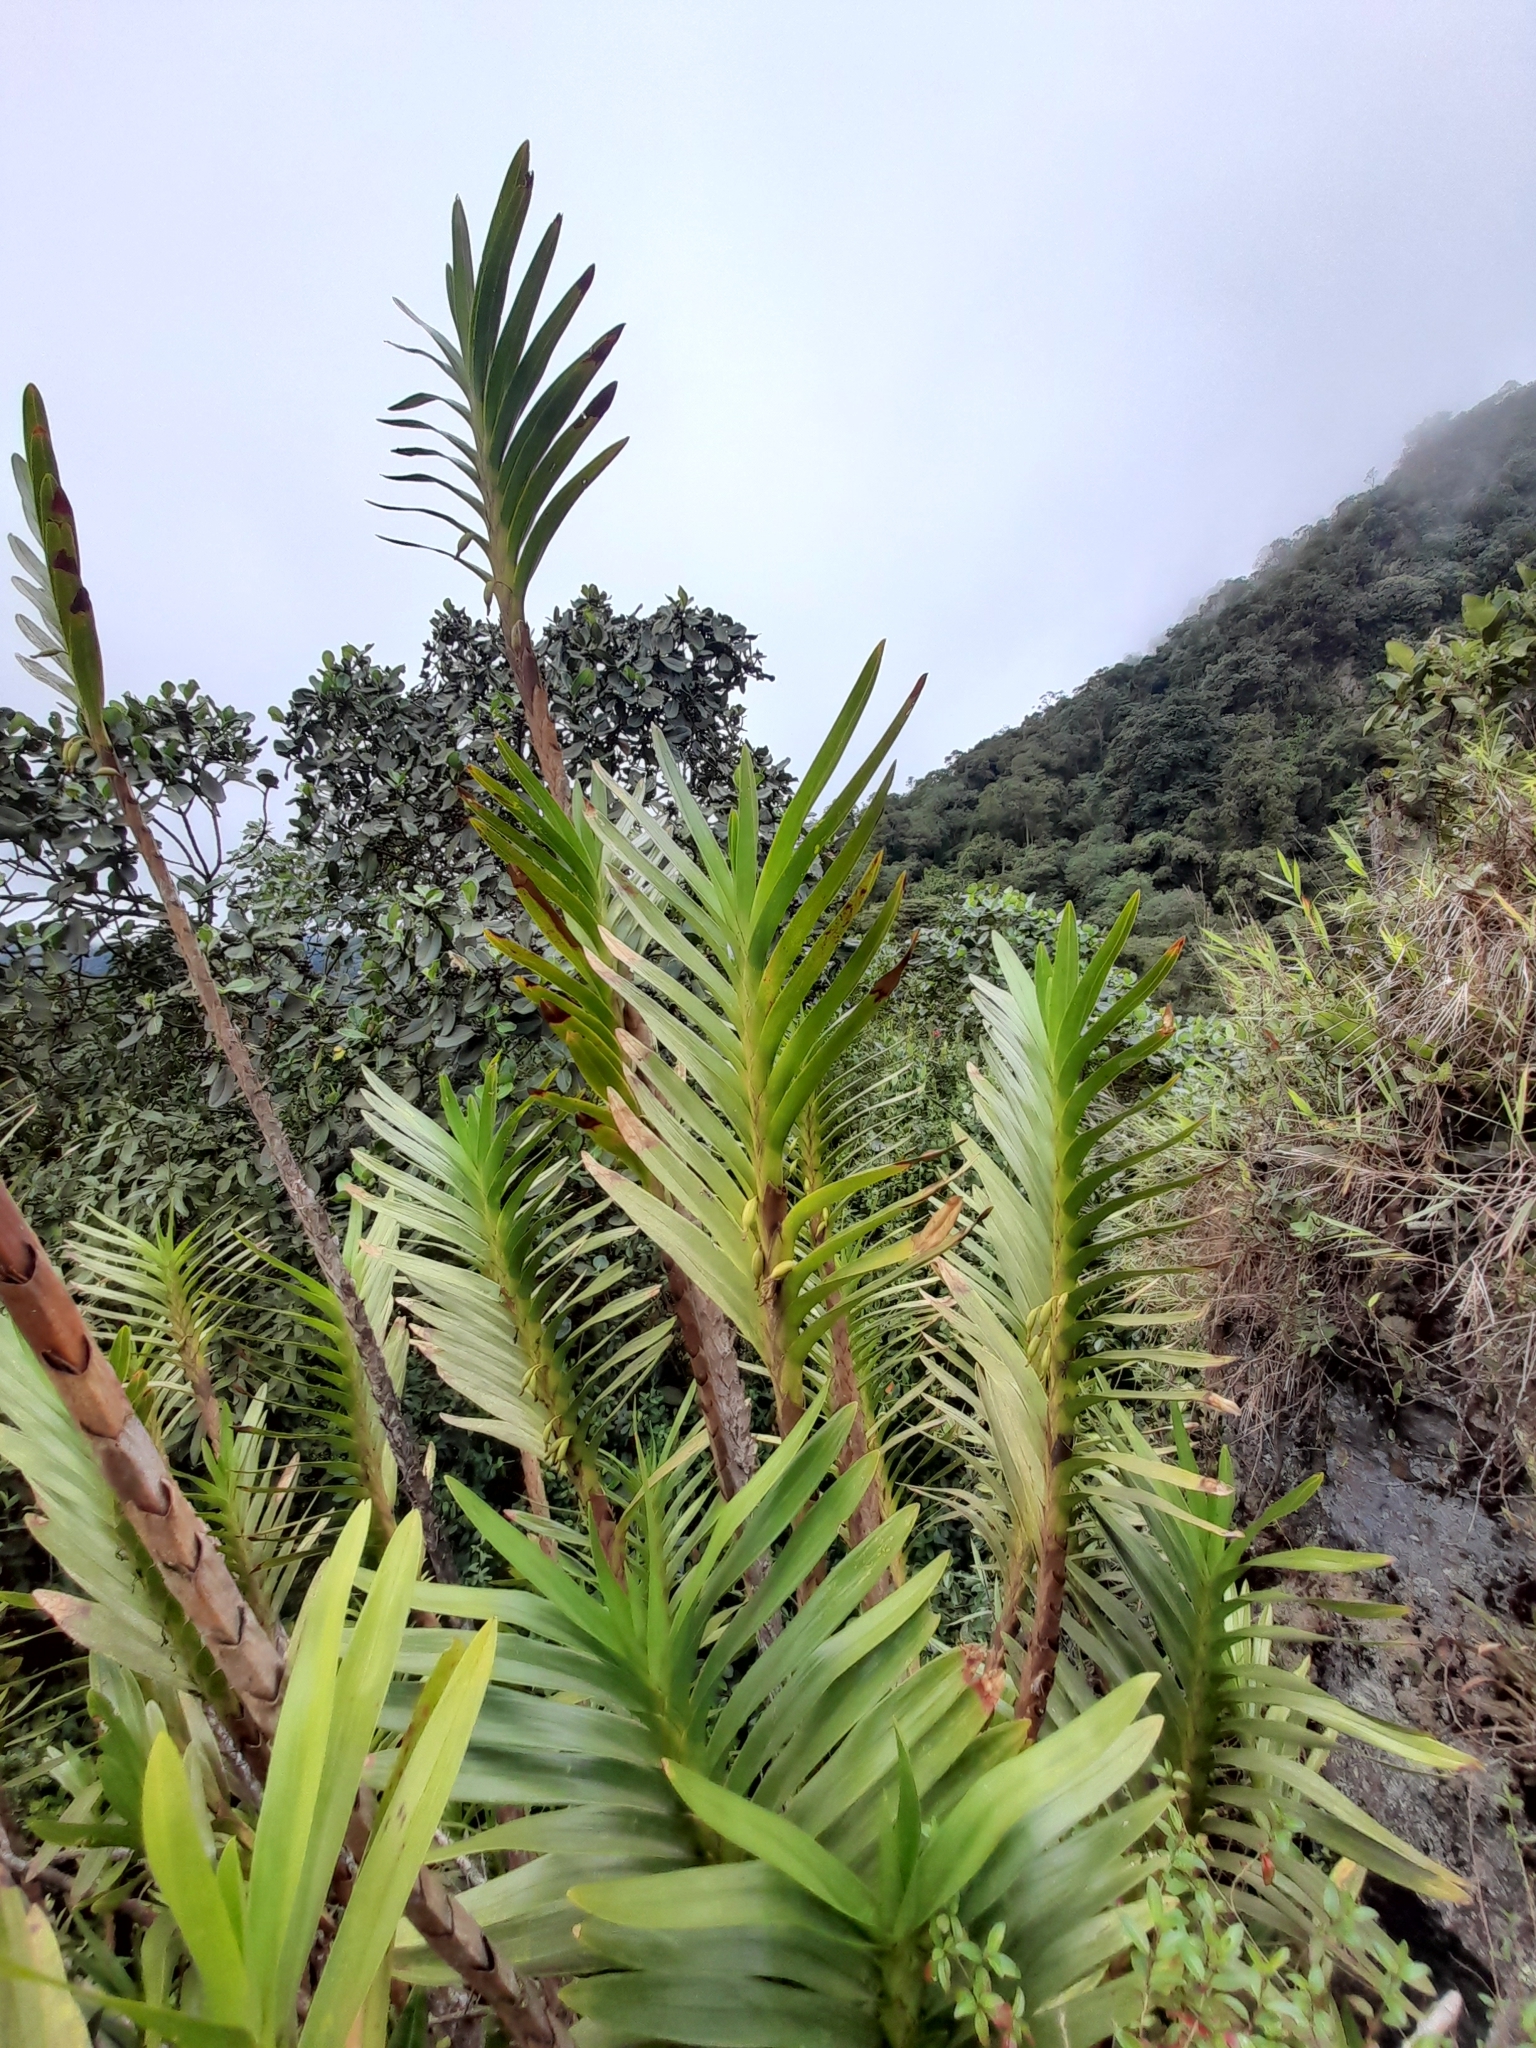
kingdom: Plantae
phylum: Tracheophyta
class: Liliopsida
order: Asparagales
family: Orchidaceae
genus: Maxillaria
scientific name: Maxillaria aurea
